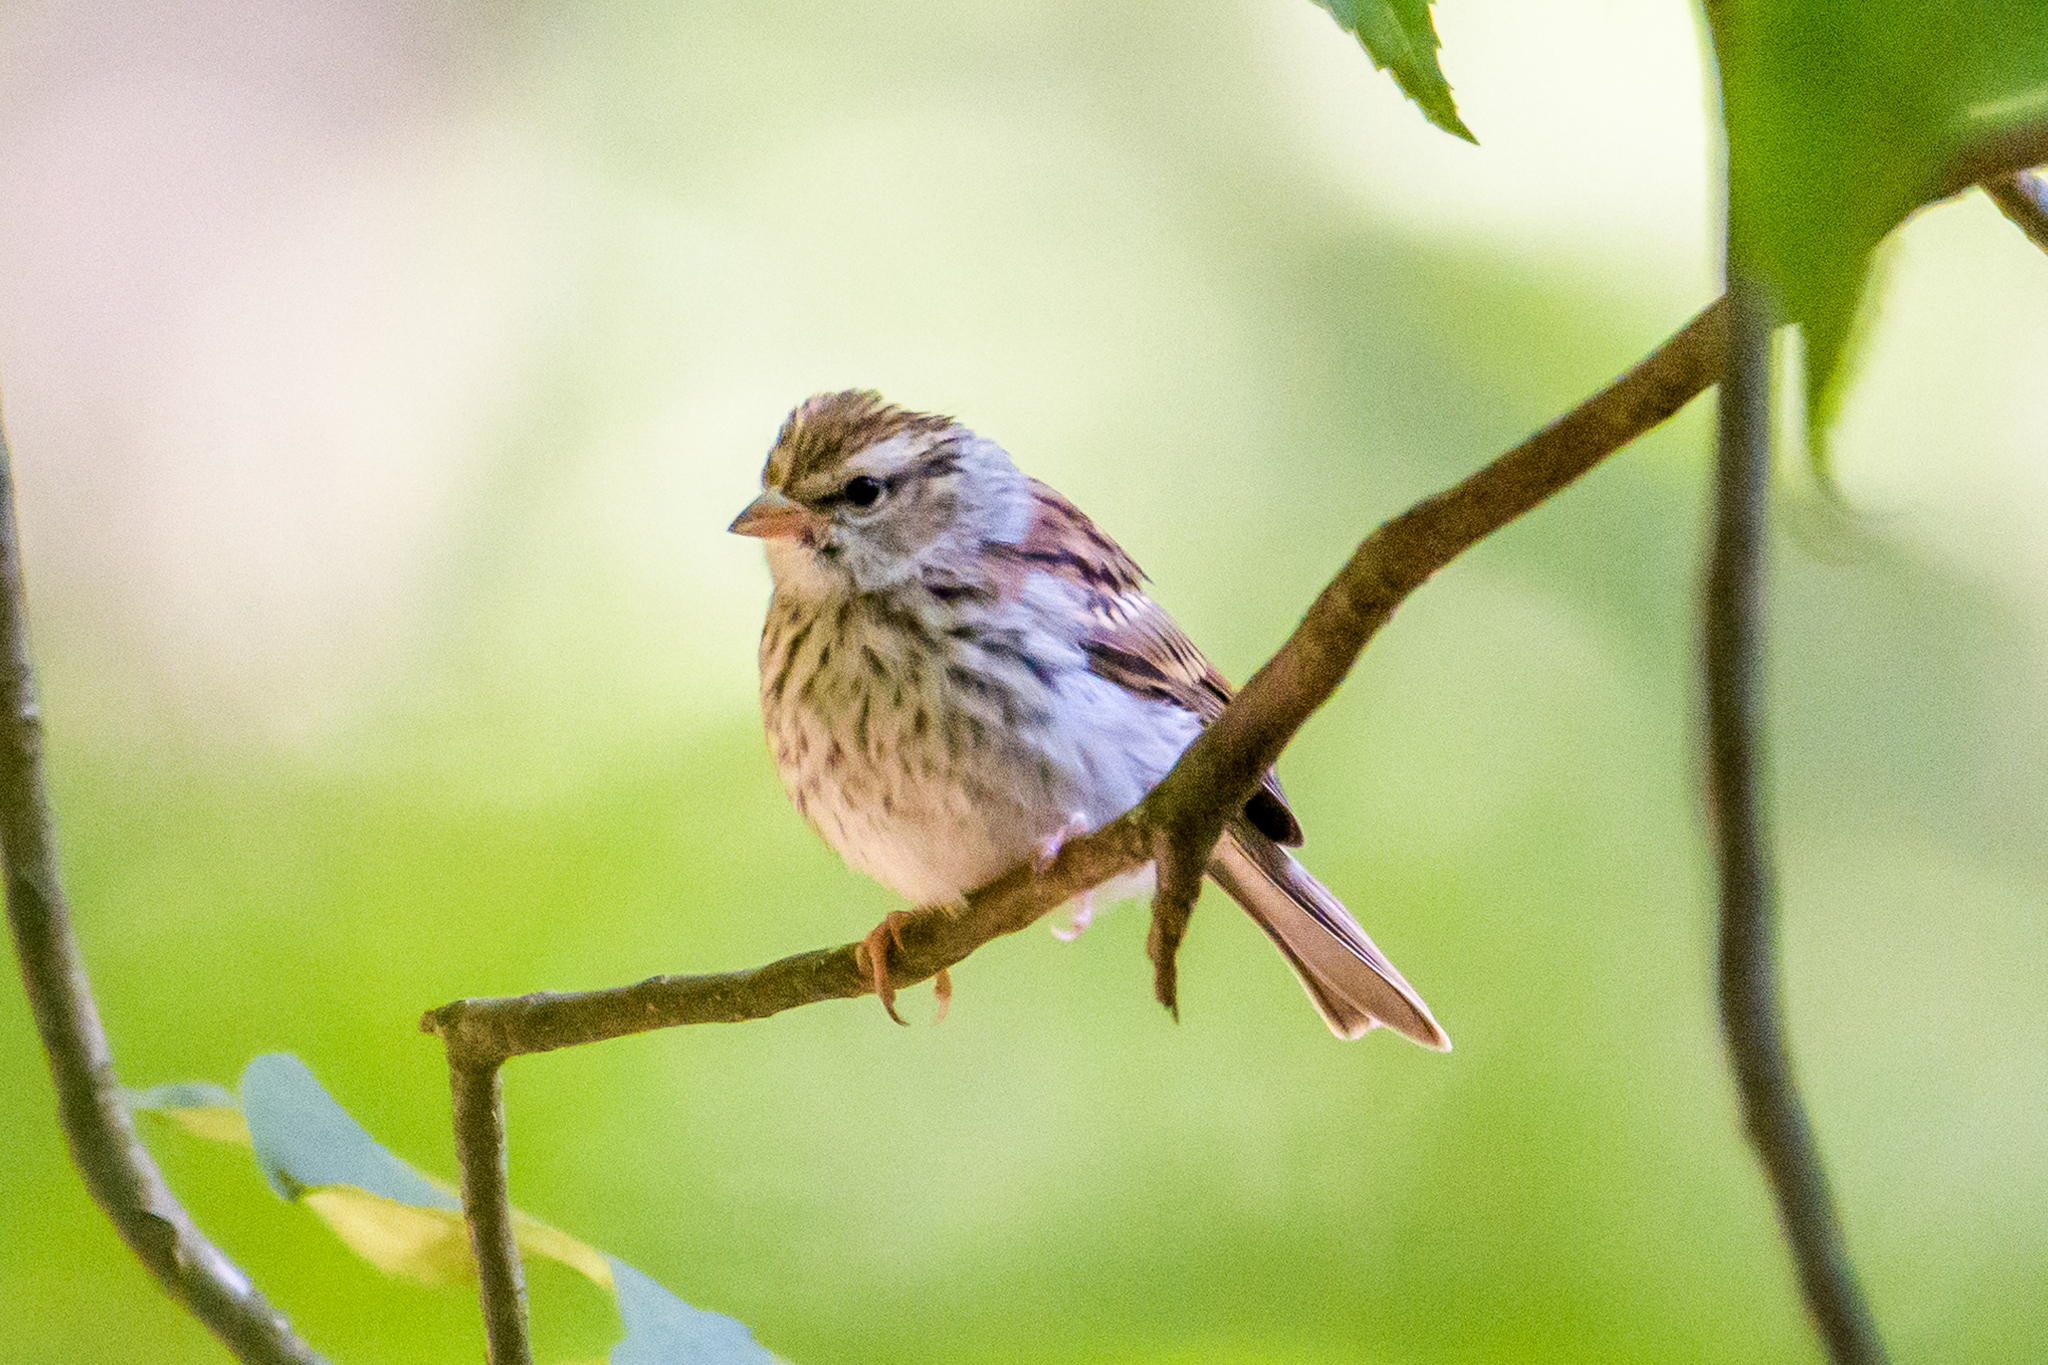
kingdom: Animalia
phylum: Chordata
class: Aves
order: Passeriformes
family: Passerellidae
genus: Spizella
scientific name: Spizella passerina
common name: Chipping sparrow
